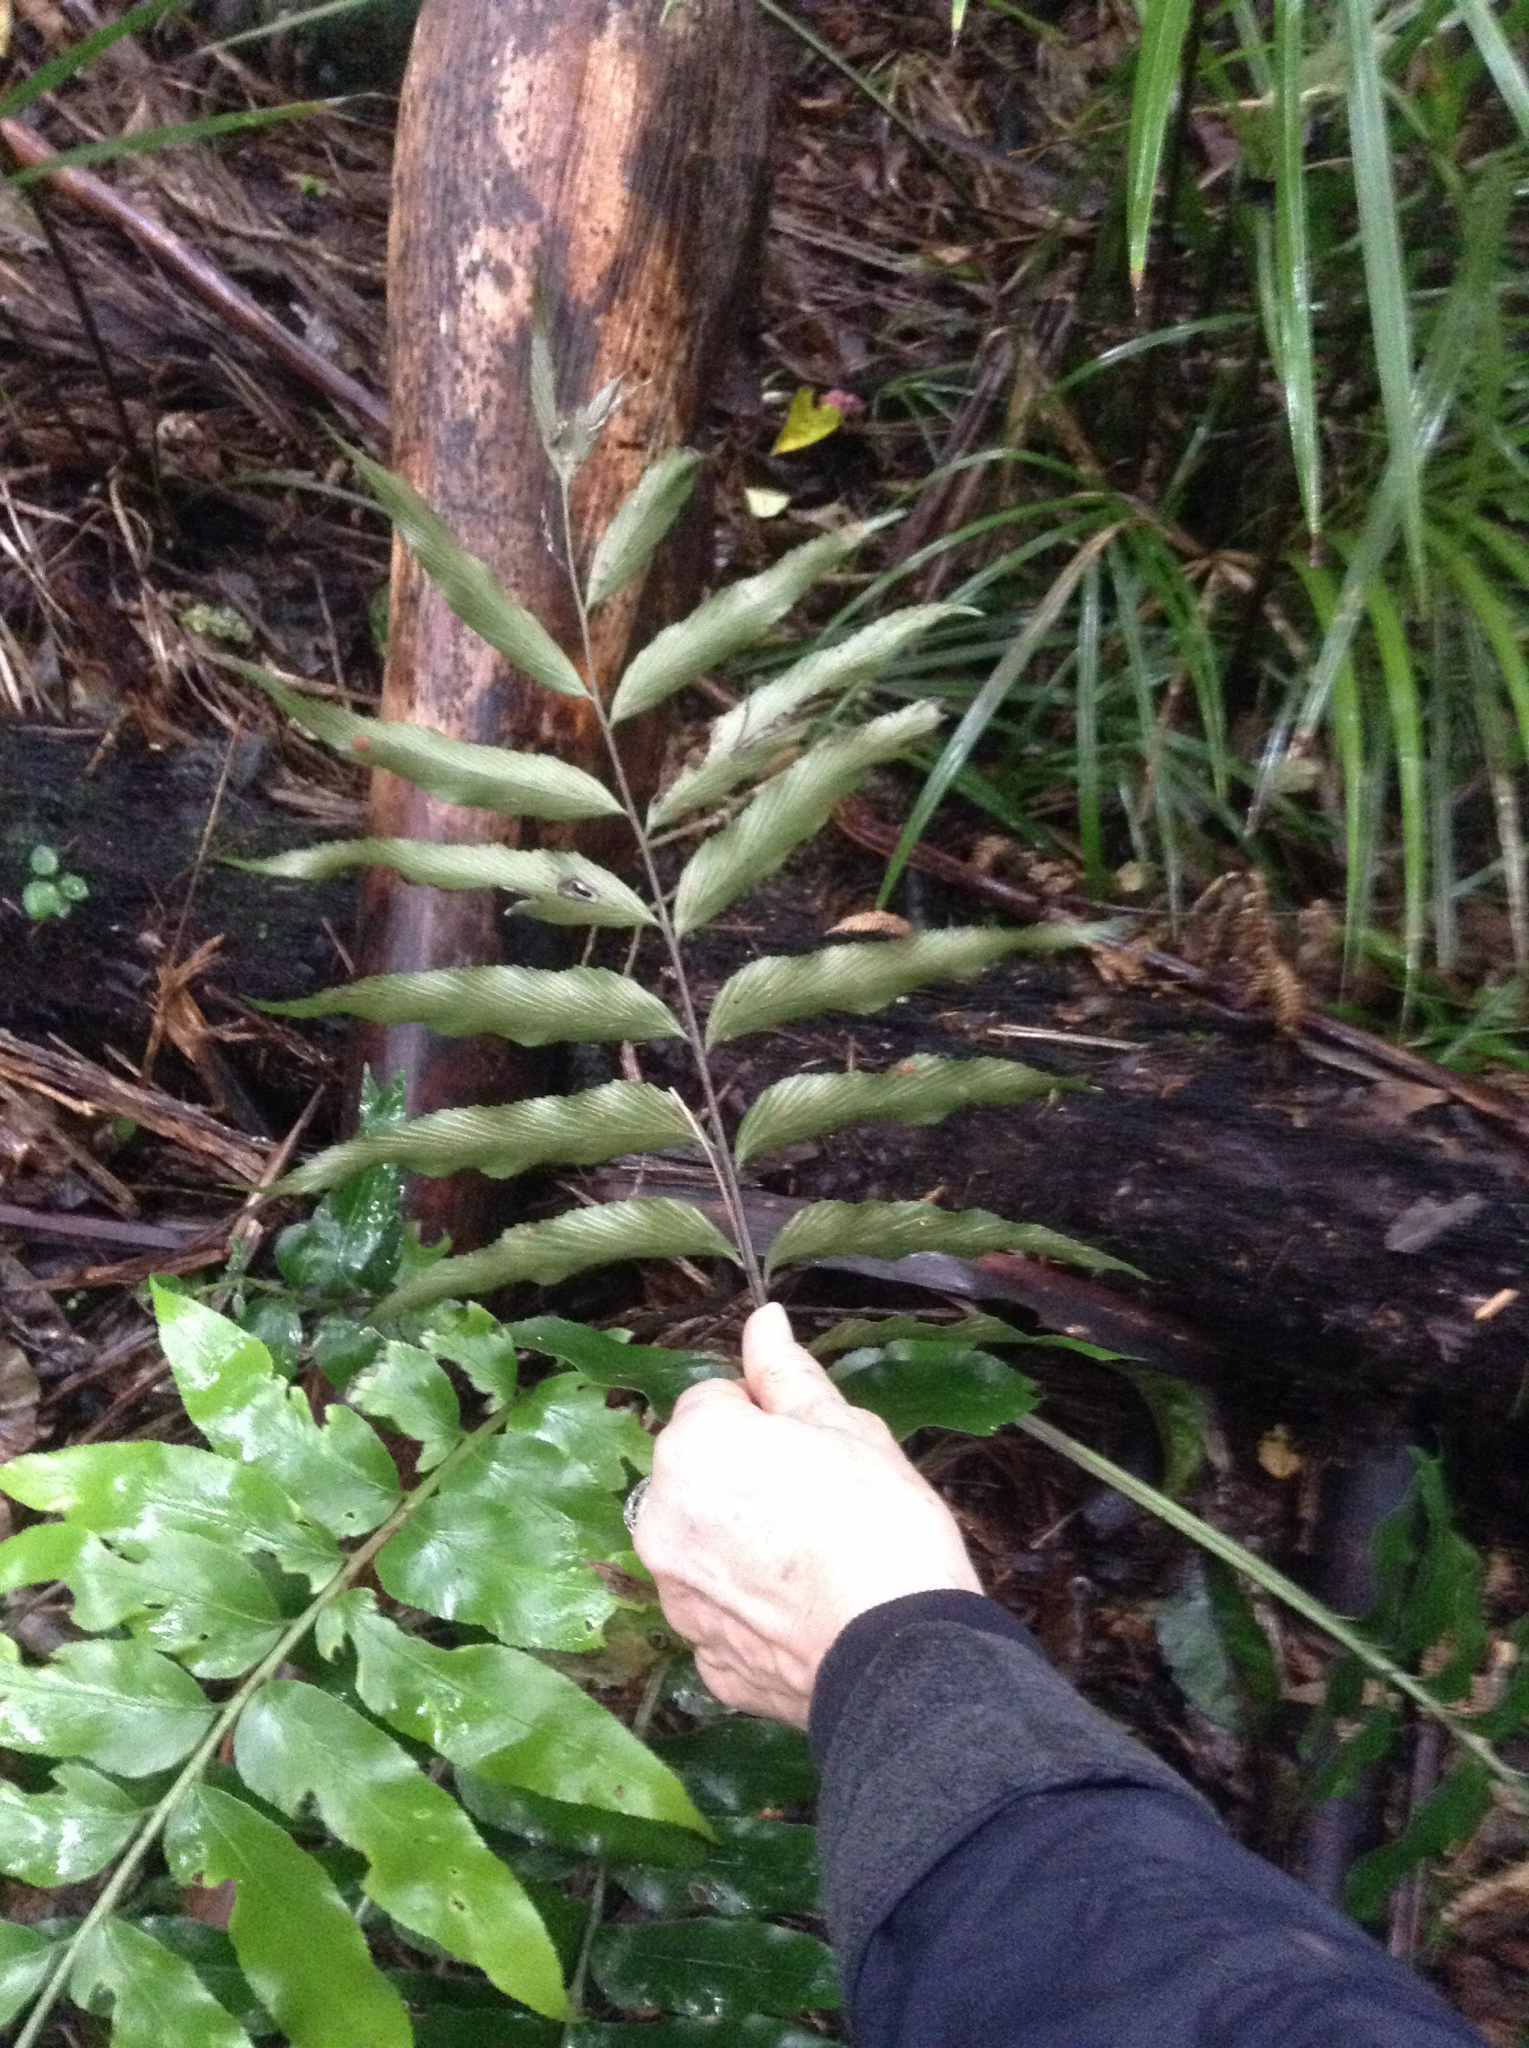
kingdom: Plantae
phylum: Tracheophyta
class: Polypodiopsida
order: Polypodiales
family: Aspleniaceae
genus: Asplenium
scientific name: Asplenium oblongifolium
